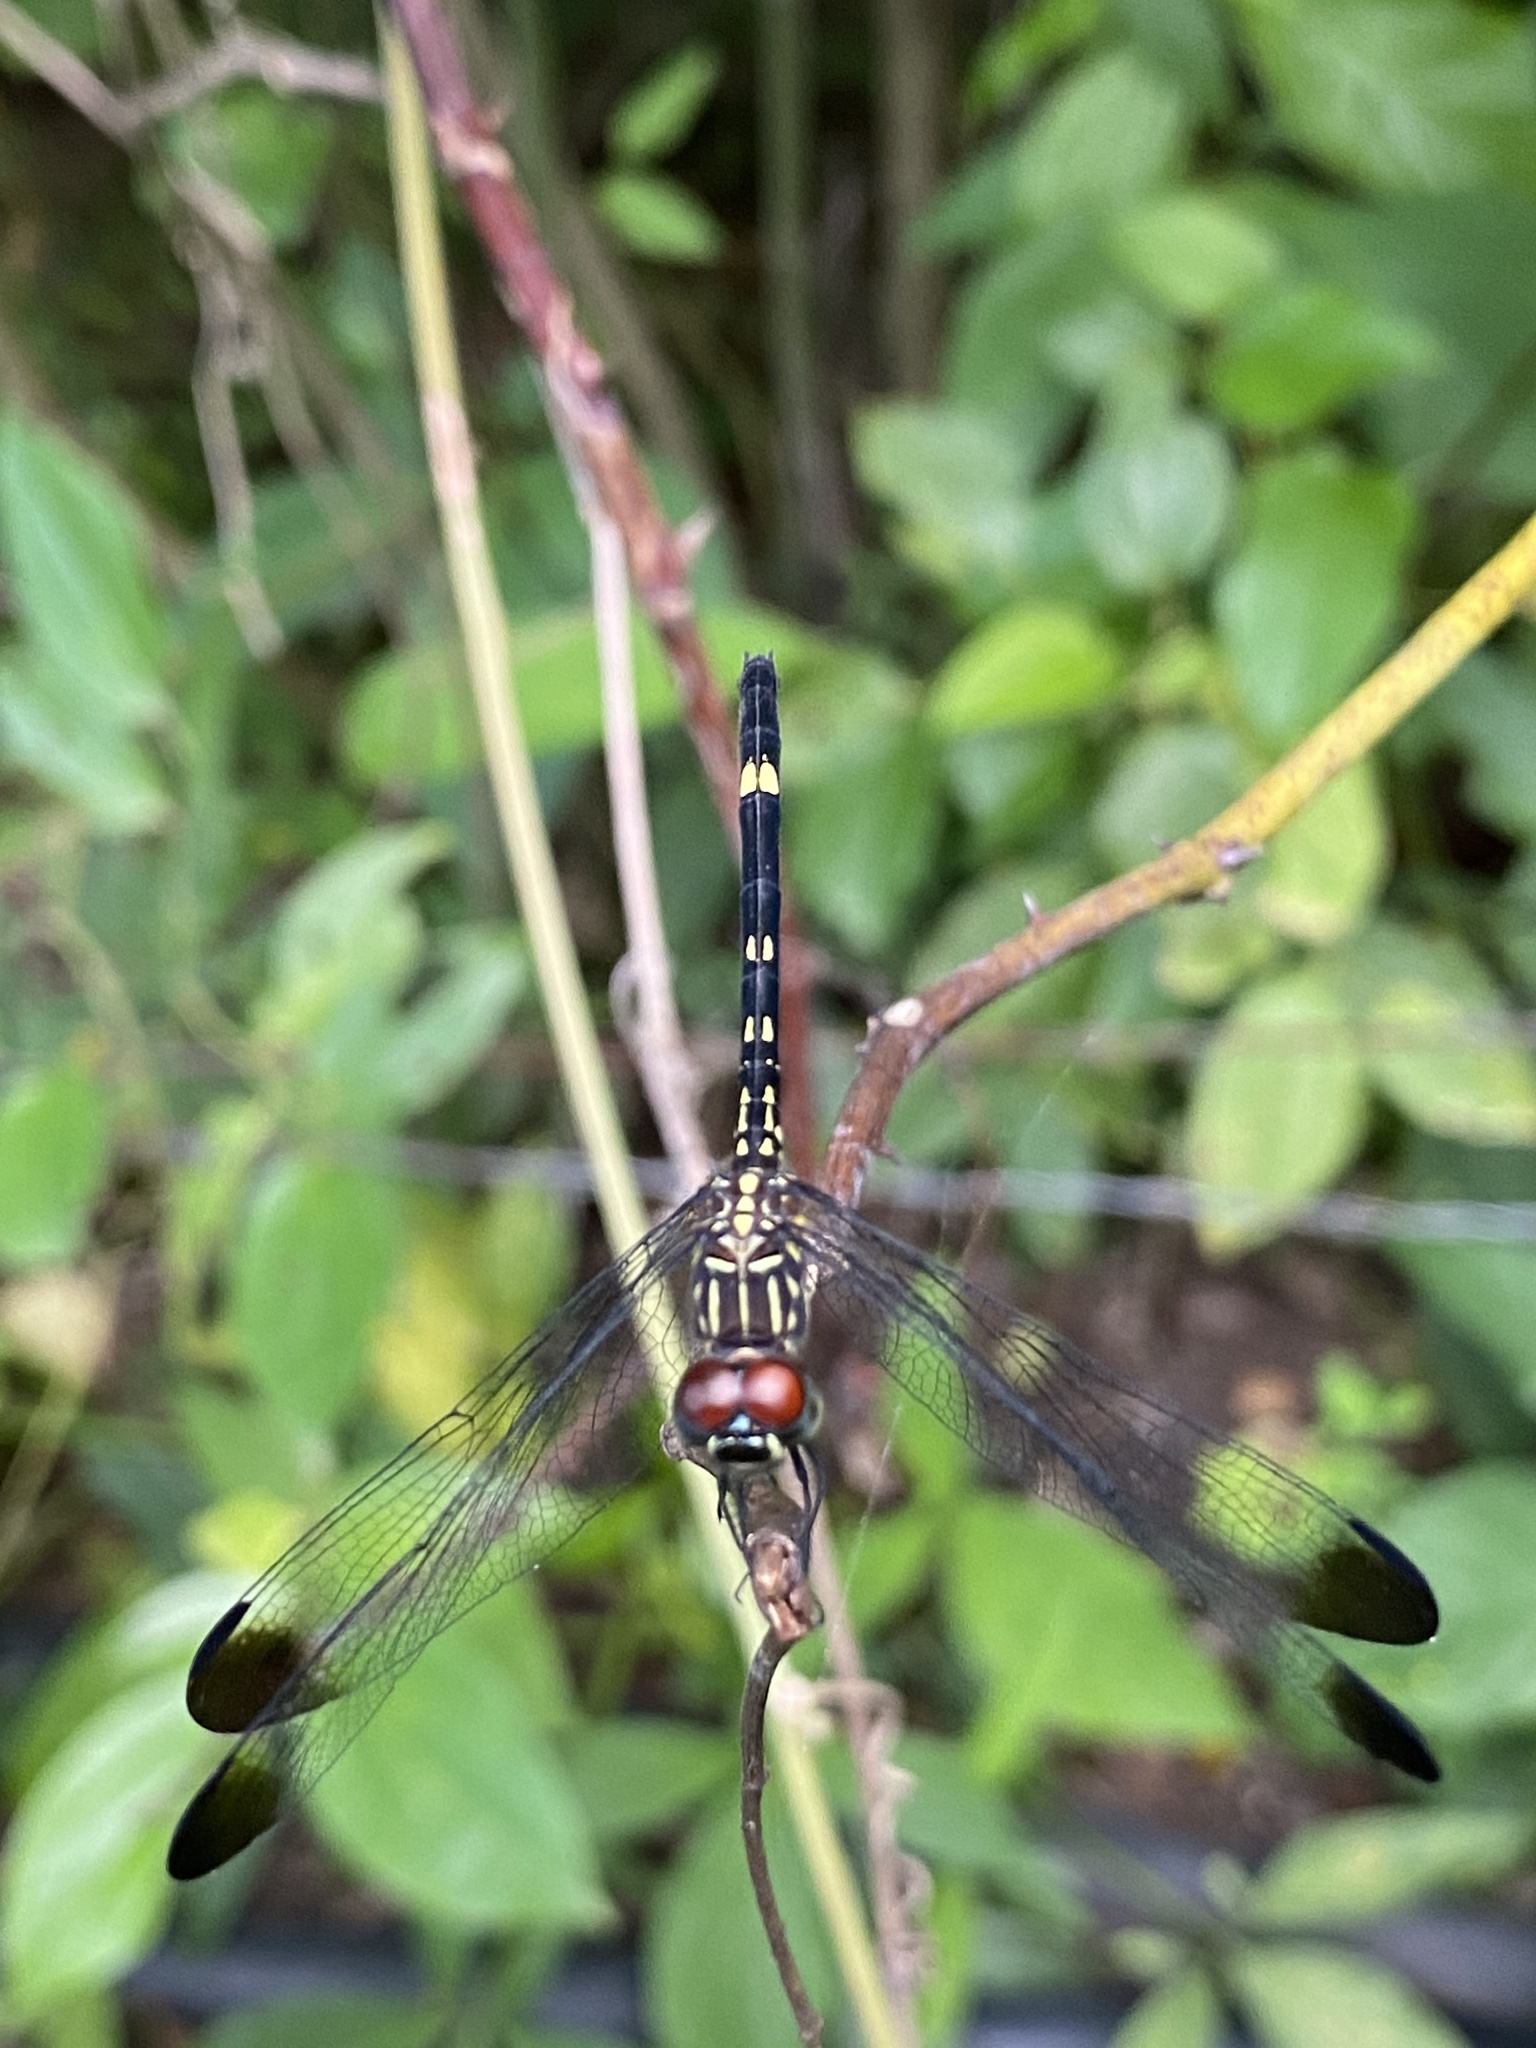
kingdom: Animalia
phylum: Arthropoda
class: Insecta
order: Odonata
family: Libellulidae
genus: Dythemis
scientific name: Dythemis sterilis
